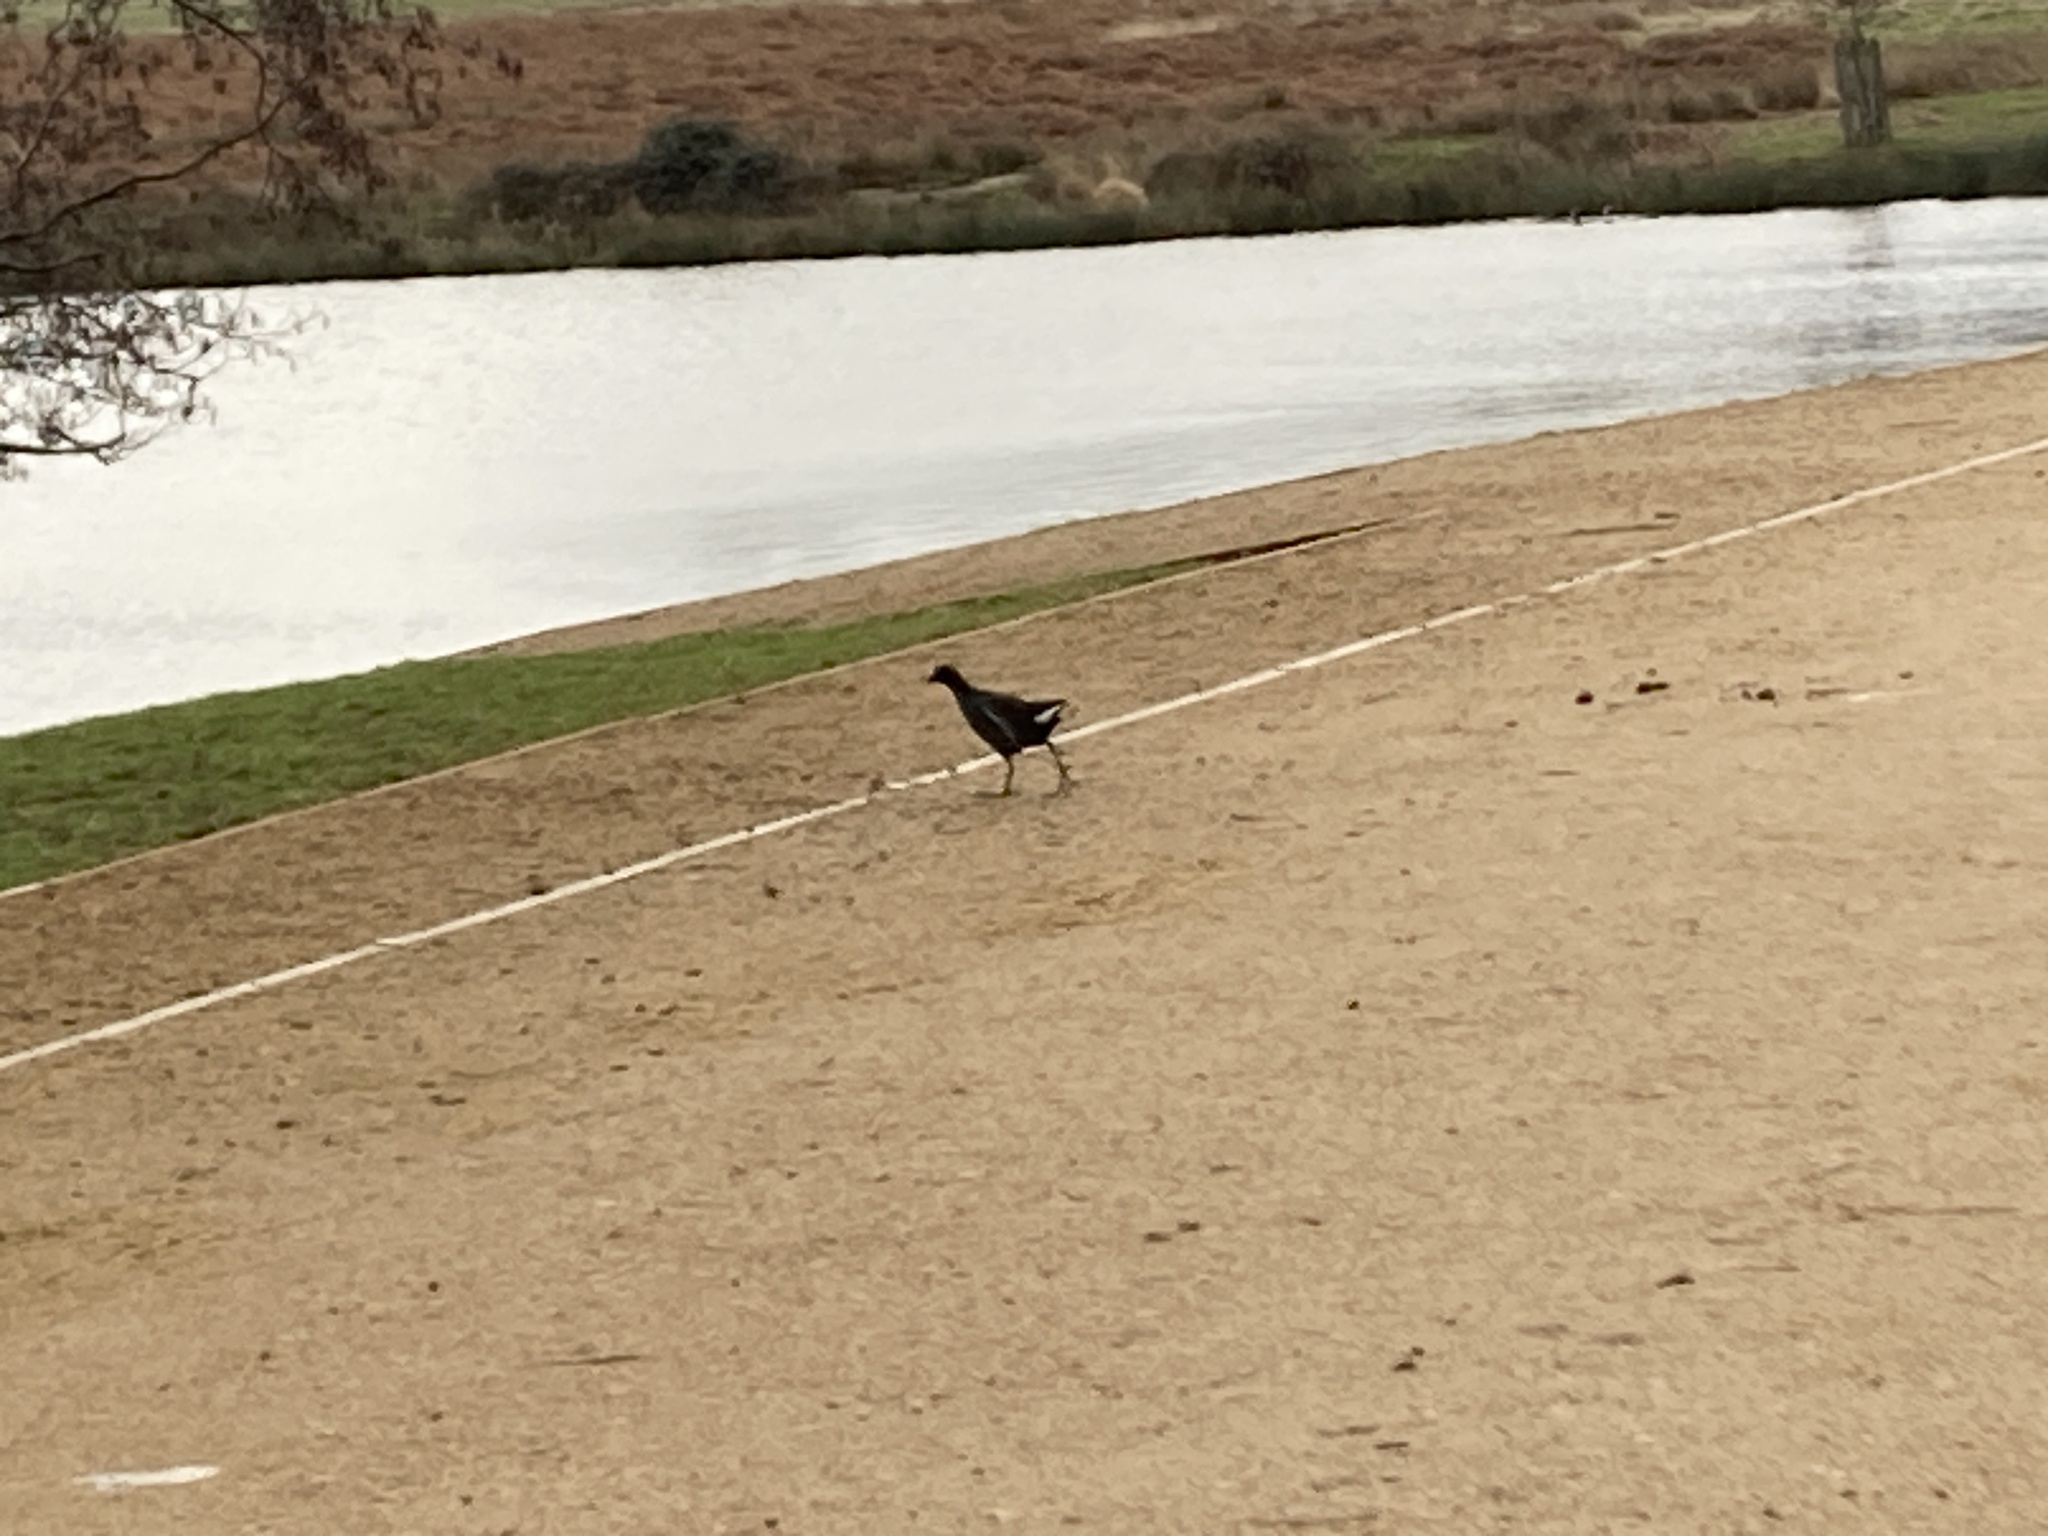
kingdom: Animalia
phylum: Chordata
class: Aves
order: Gruiformes
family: Rallidae
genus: Gallinula
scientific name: Gallinula chloropus
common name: Common moorhen
